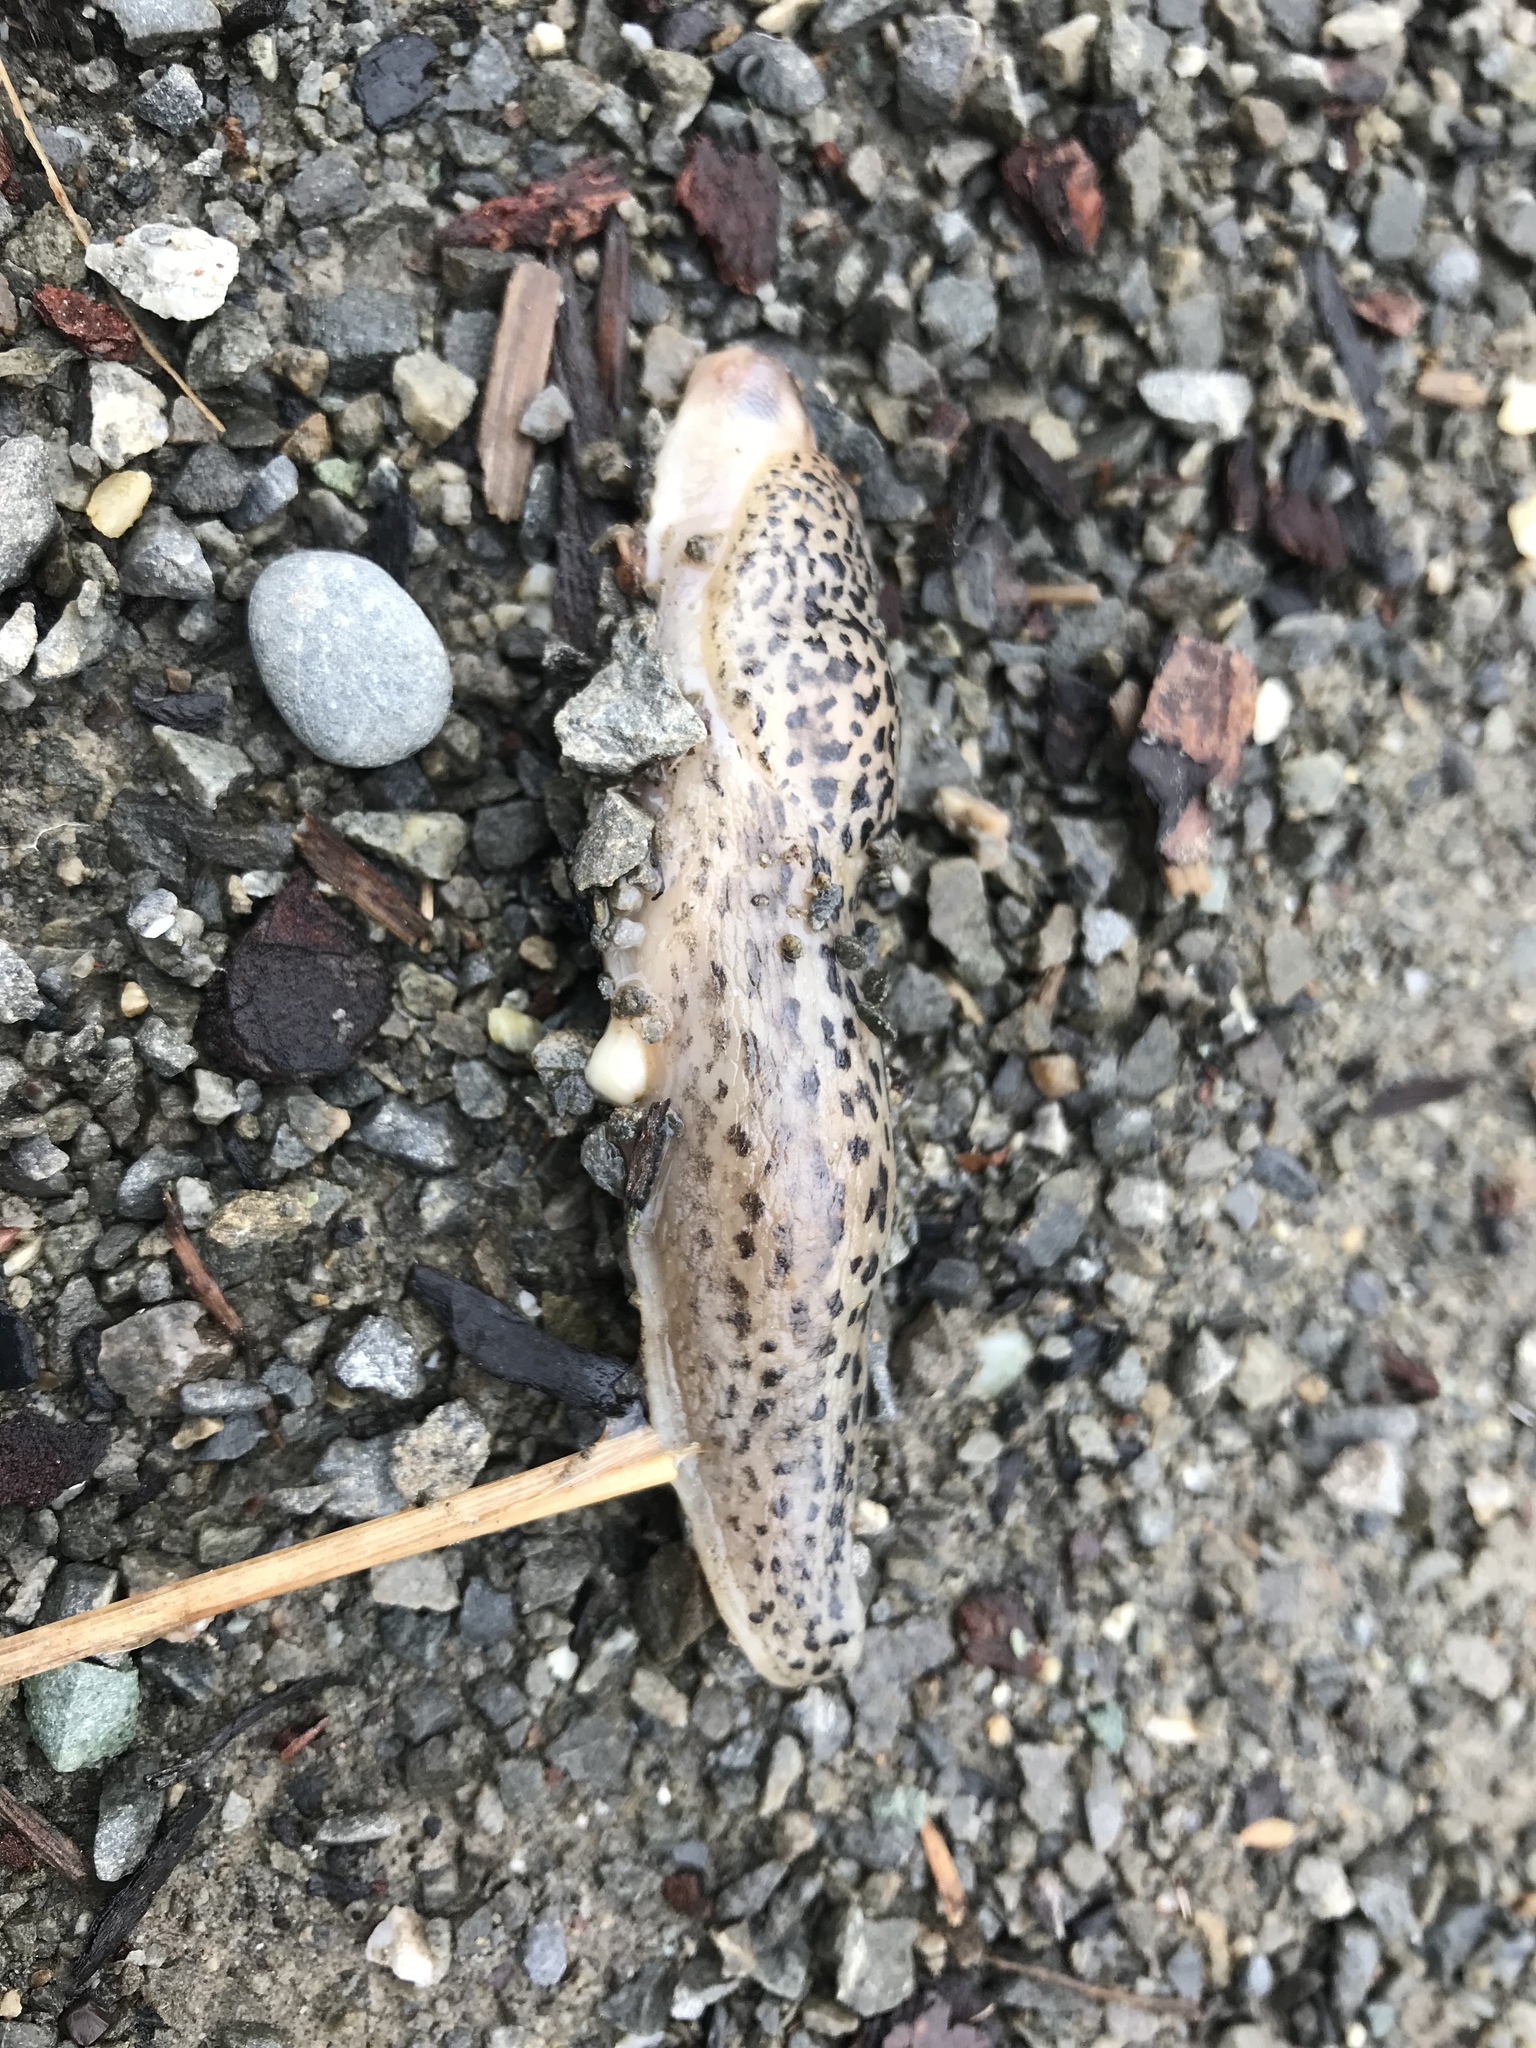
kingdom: Animalia
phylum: Mollusca
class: Gastropoda
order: Stylommatophora
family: Limacidae
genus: Limax
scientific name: Limax maximus
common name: Great grey slug
